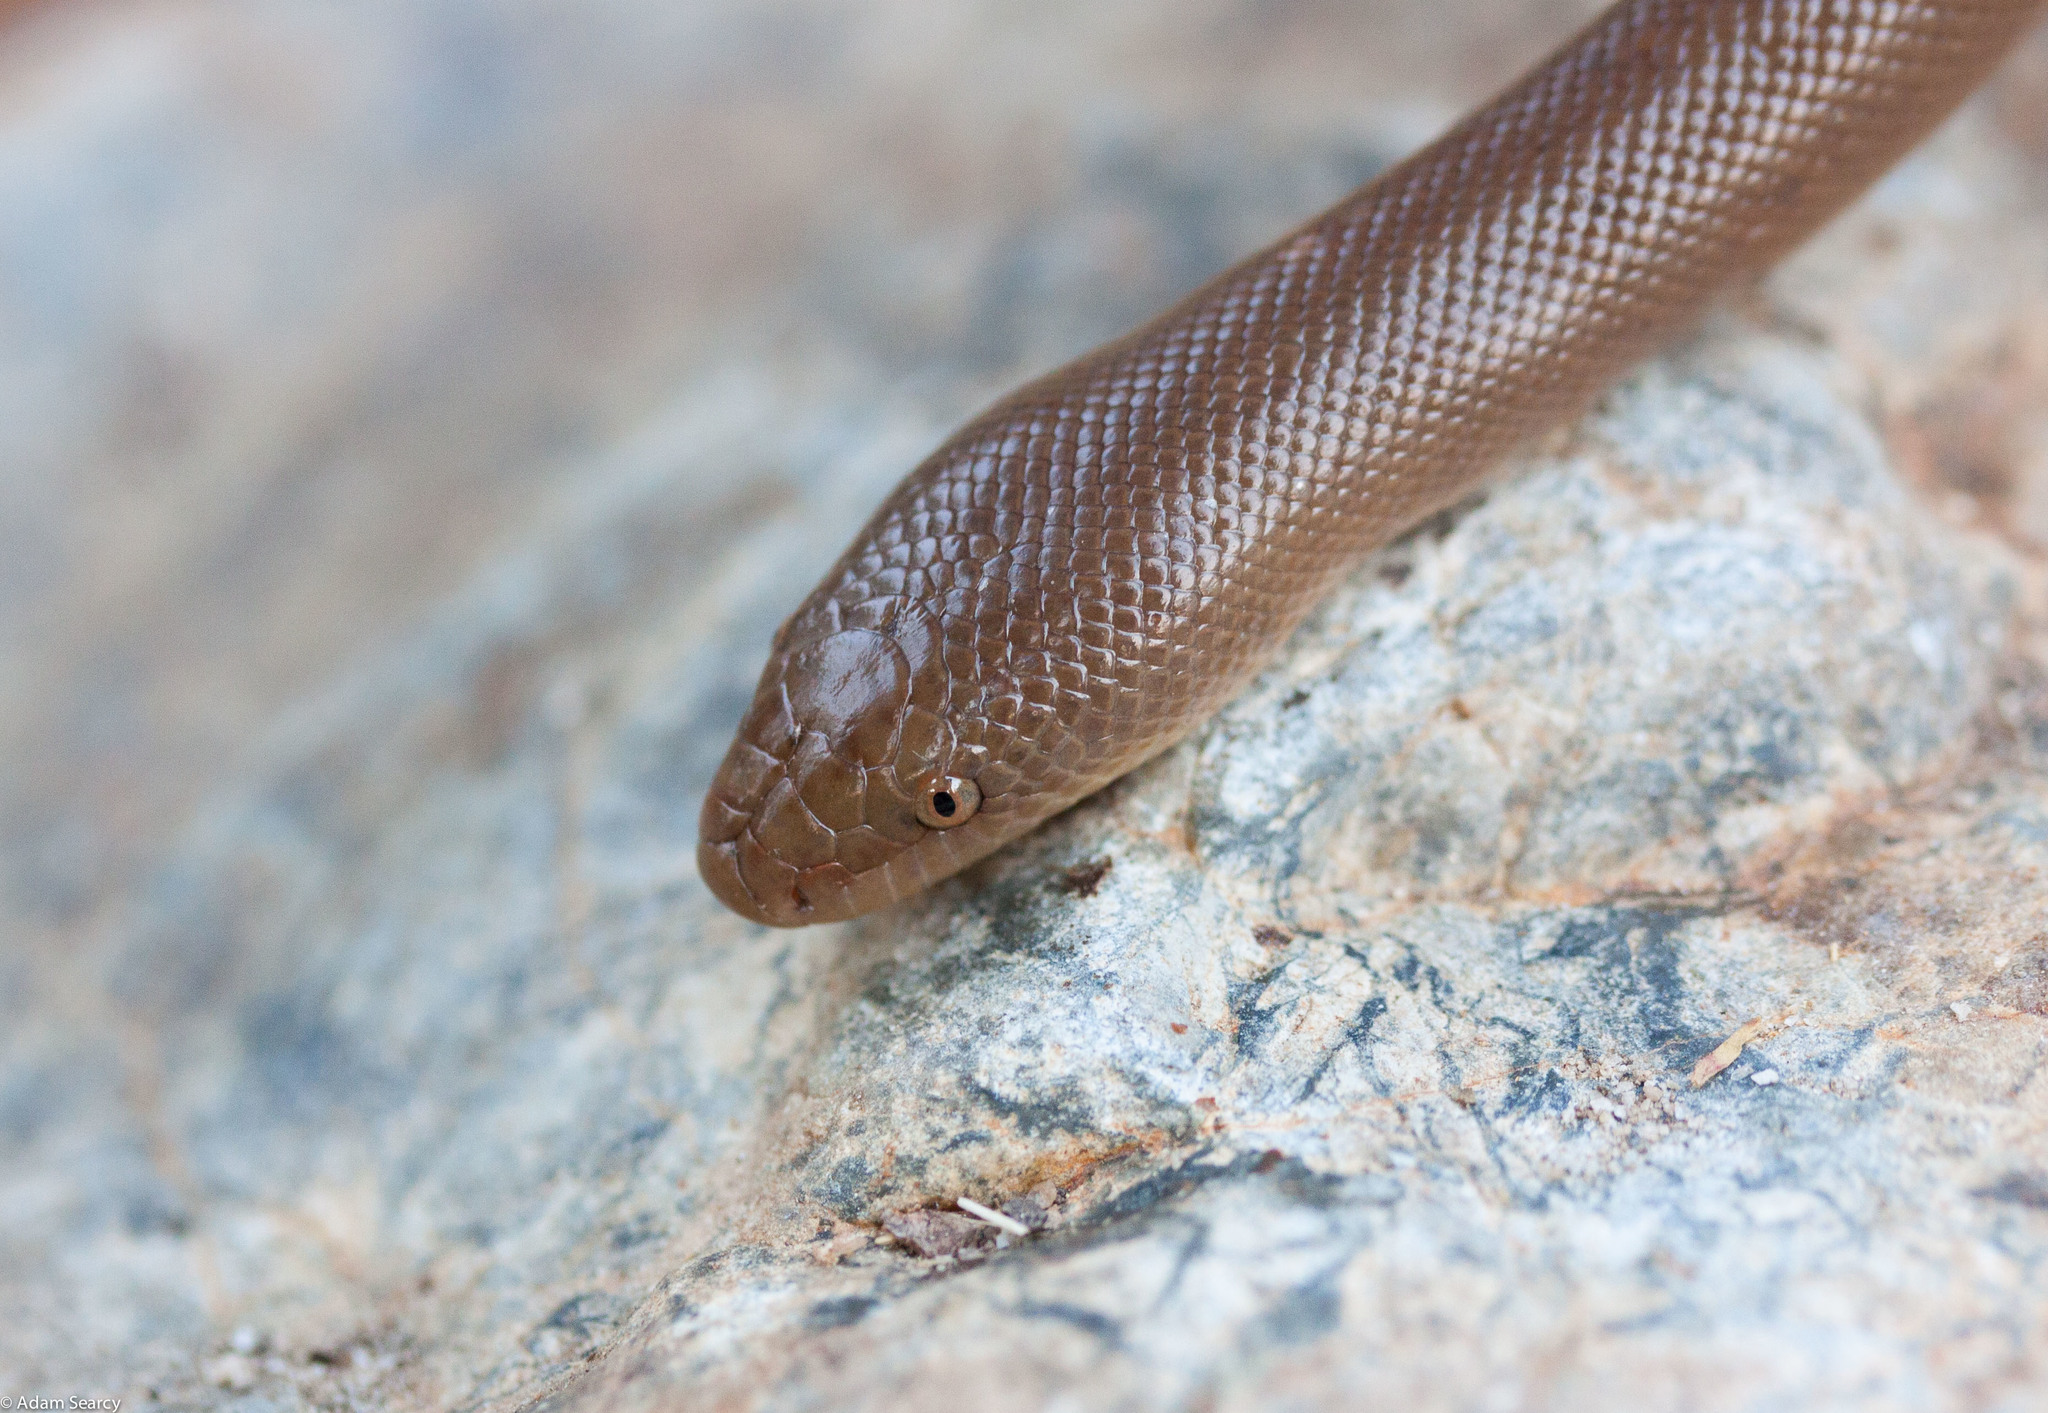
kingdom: Animalia
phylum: Chordata
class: Squamata
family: Boidae
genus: Charina
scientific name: Charina bottae
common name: Northern rubber boa
